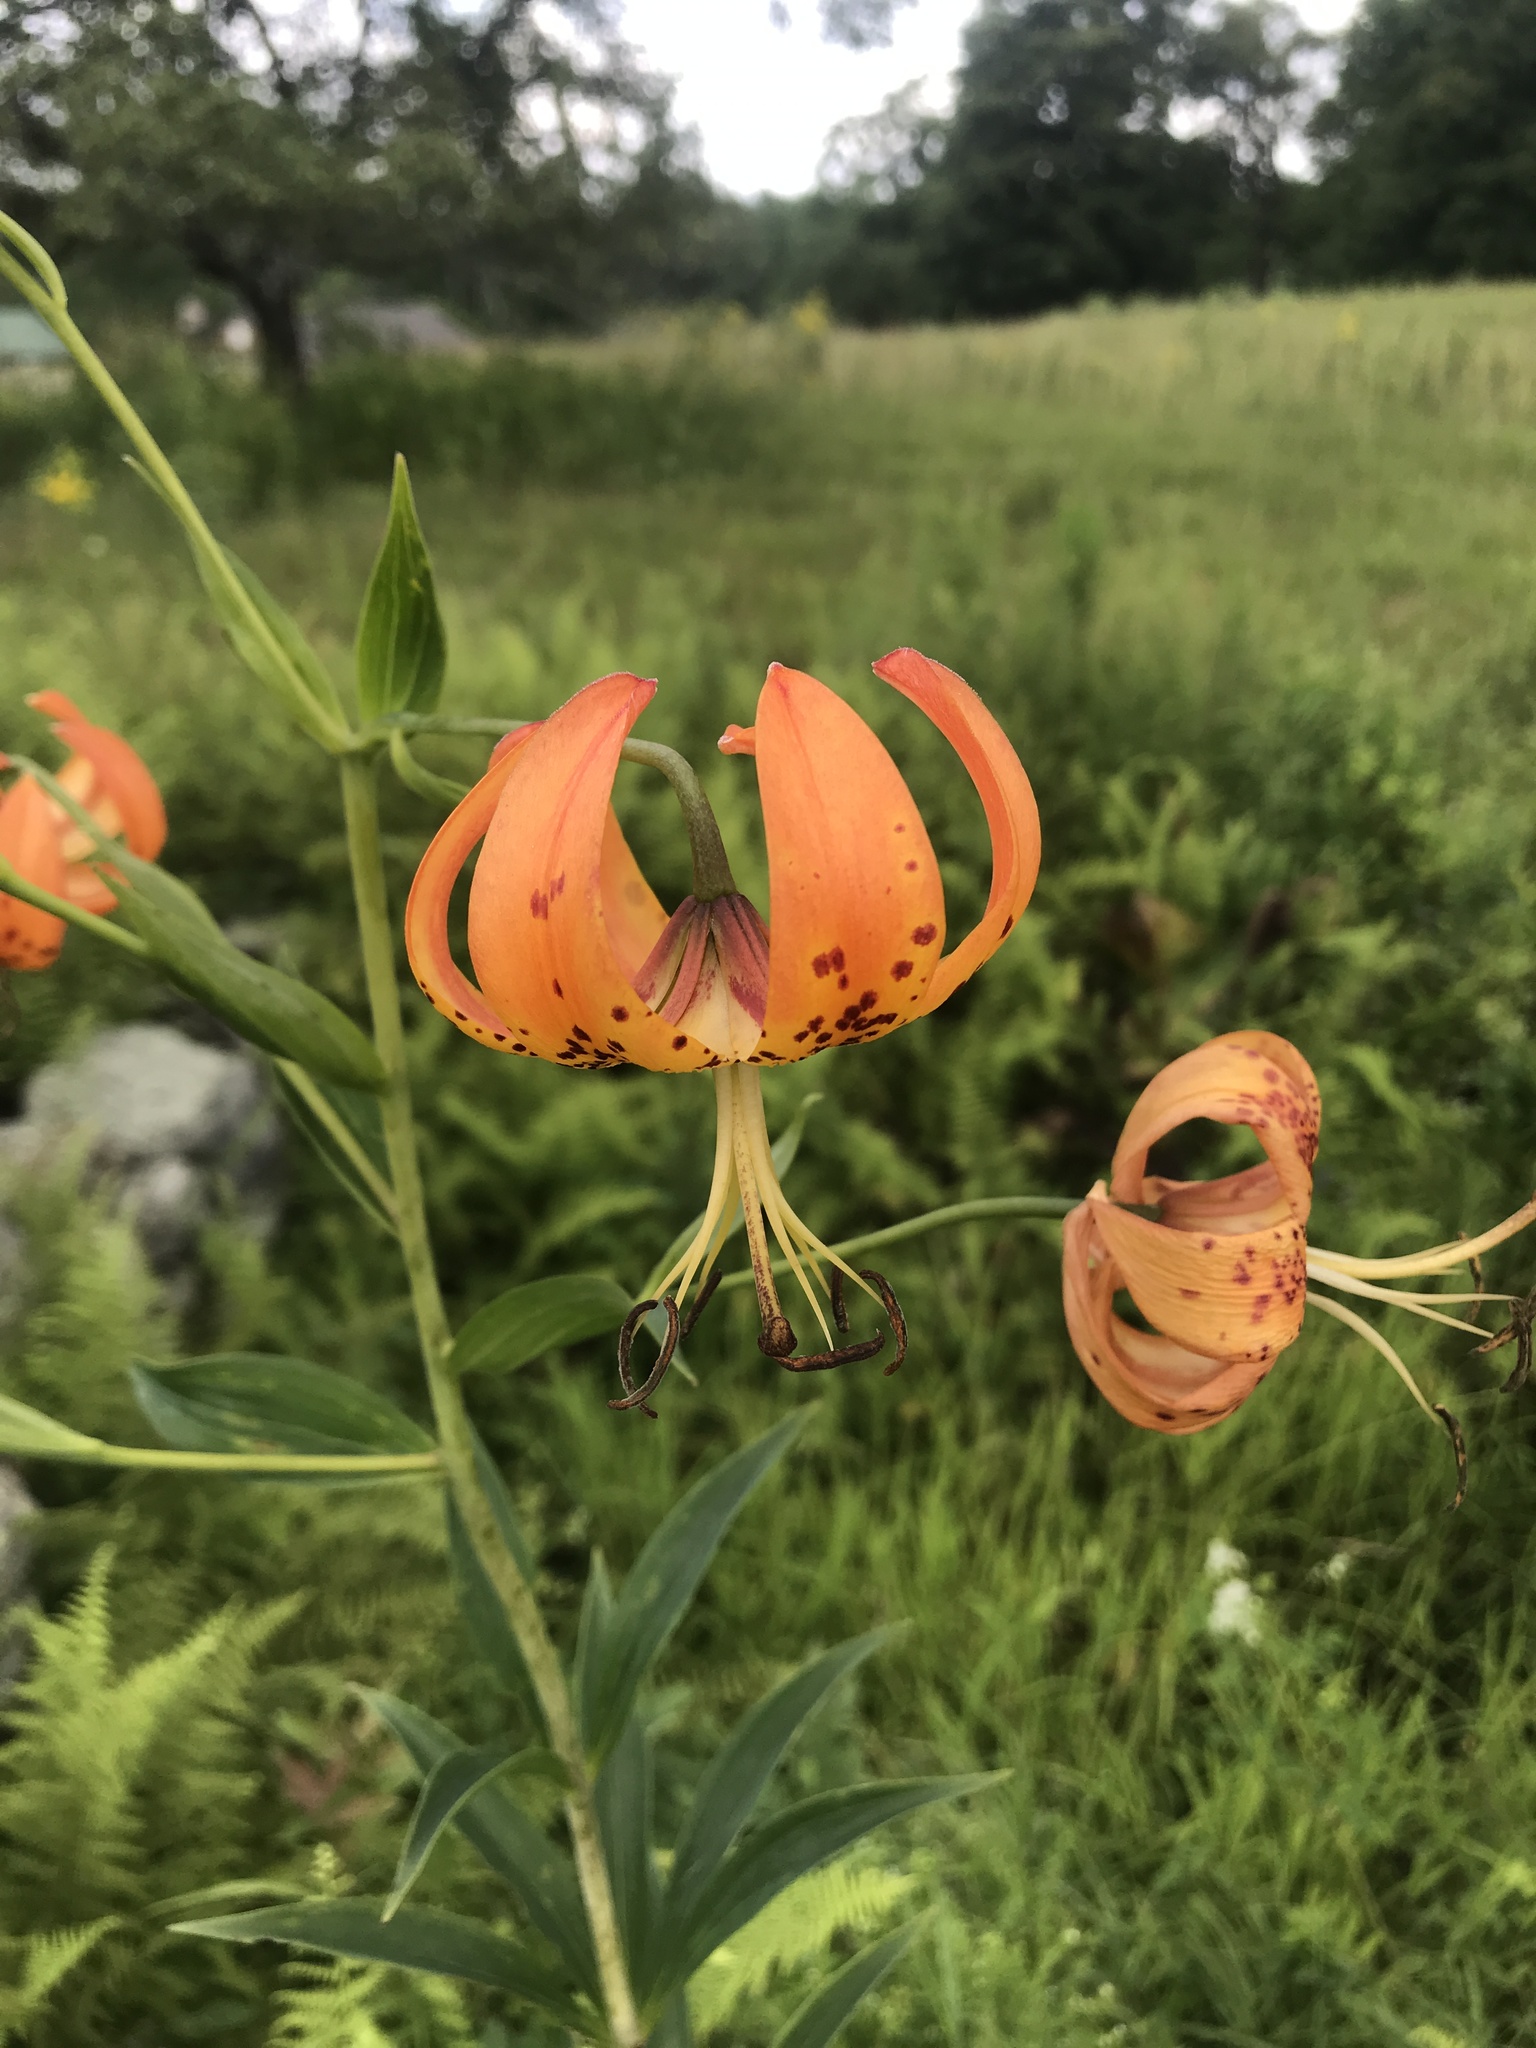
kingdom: Plantae
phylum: Tracheophyta
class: Liliopsida
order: Liliales
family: Liliaceae
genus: Lilium
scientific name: Lilium superbum
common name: American turk's-cap lily
